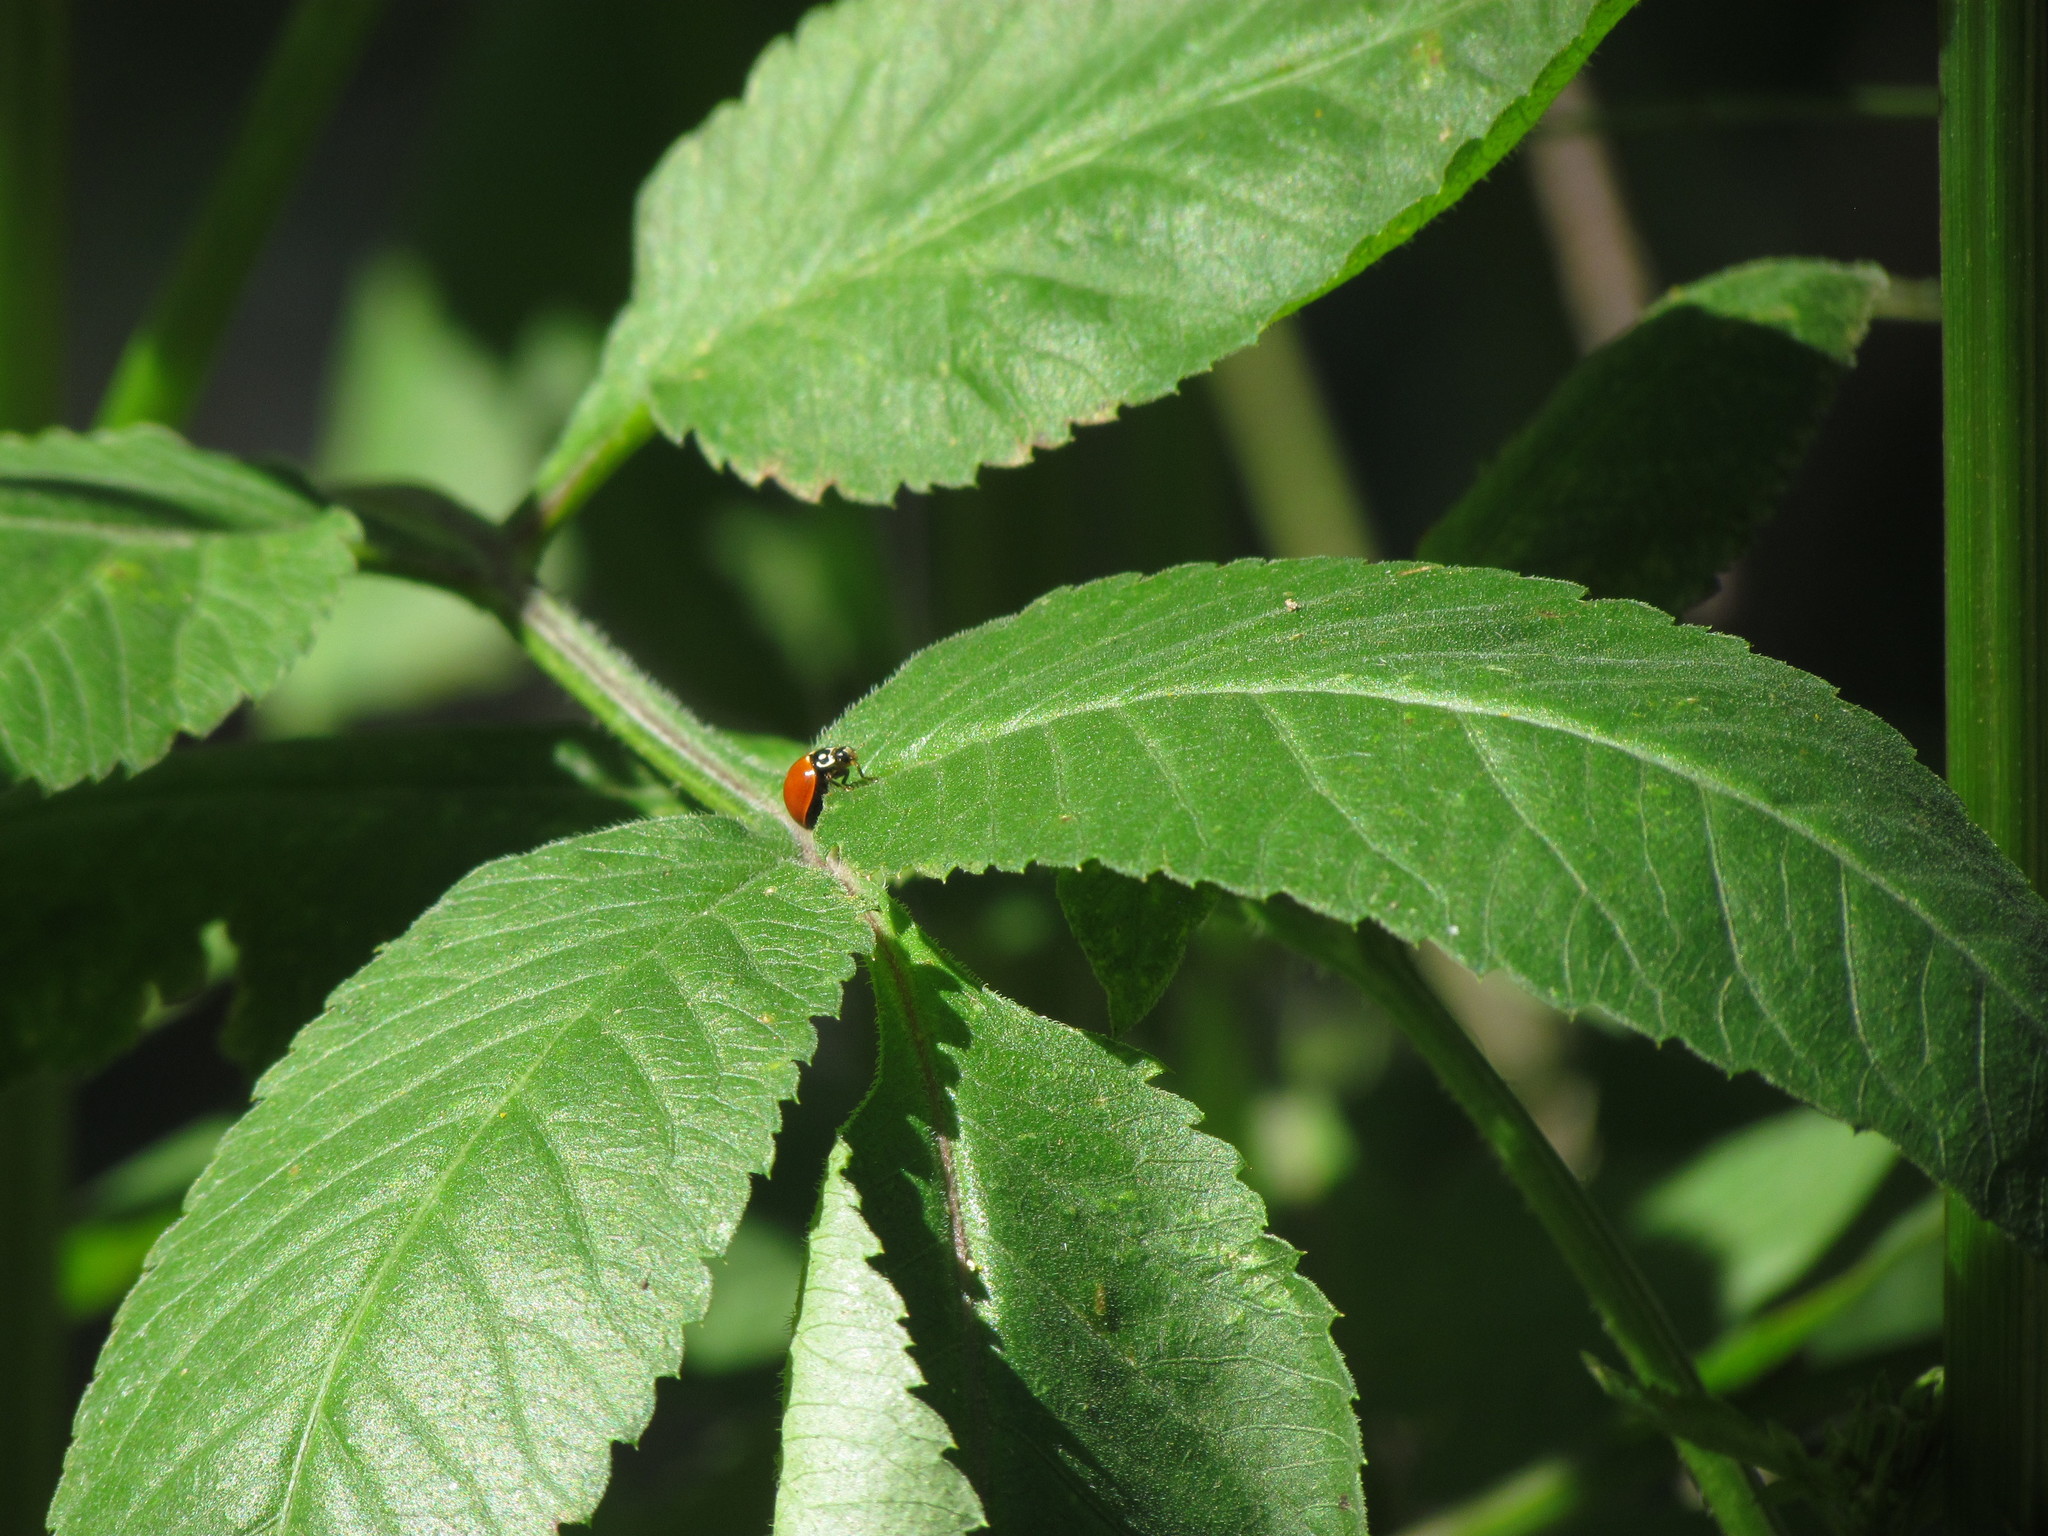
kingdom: Animalia
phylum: Arthropoda
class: Insecta
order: Coleoptera
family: Coccinellidae
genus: Cycloneda
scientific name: Cycloneda sanguinea
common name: Ladybird beetle
